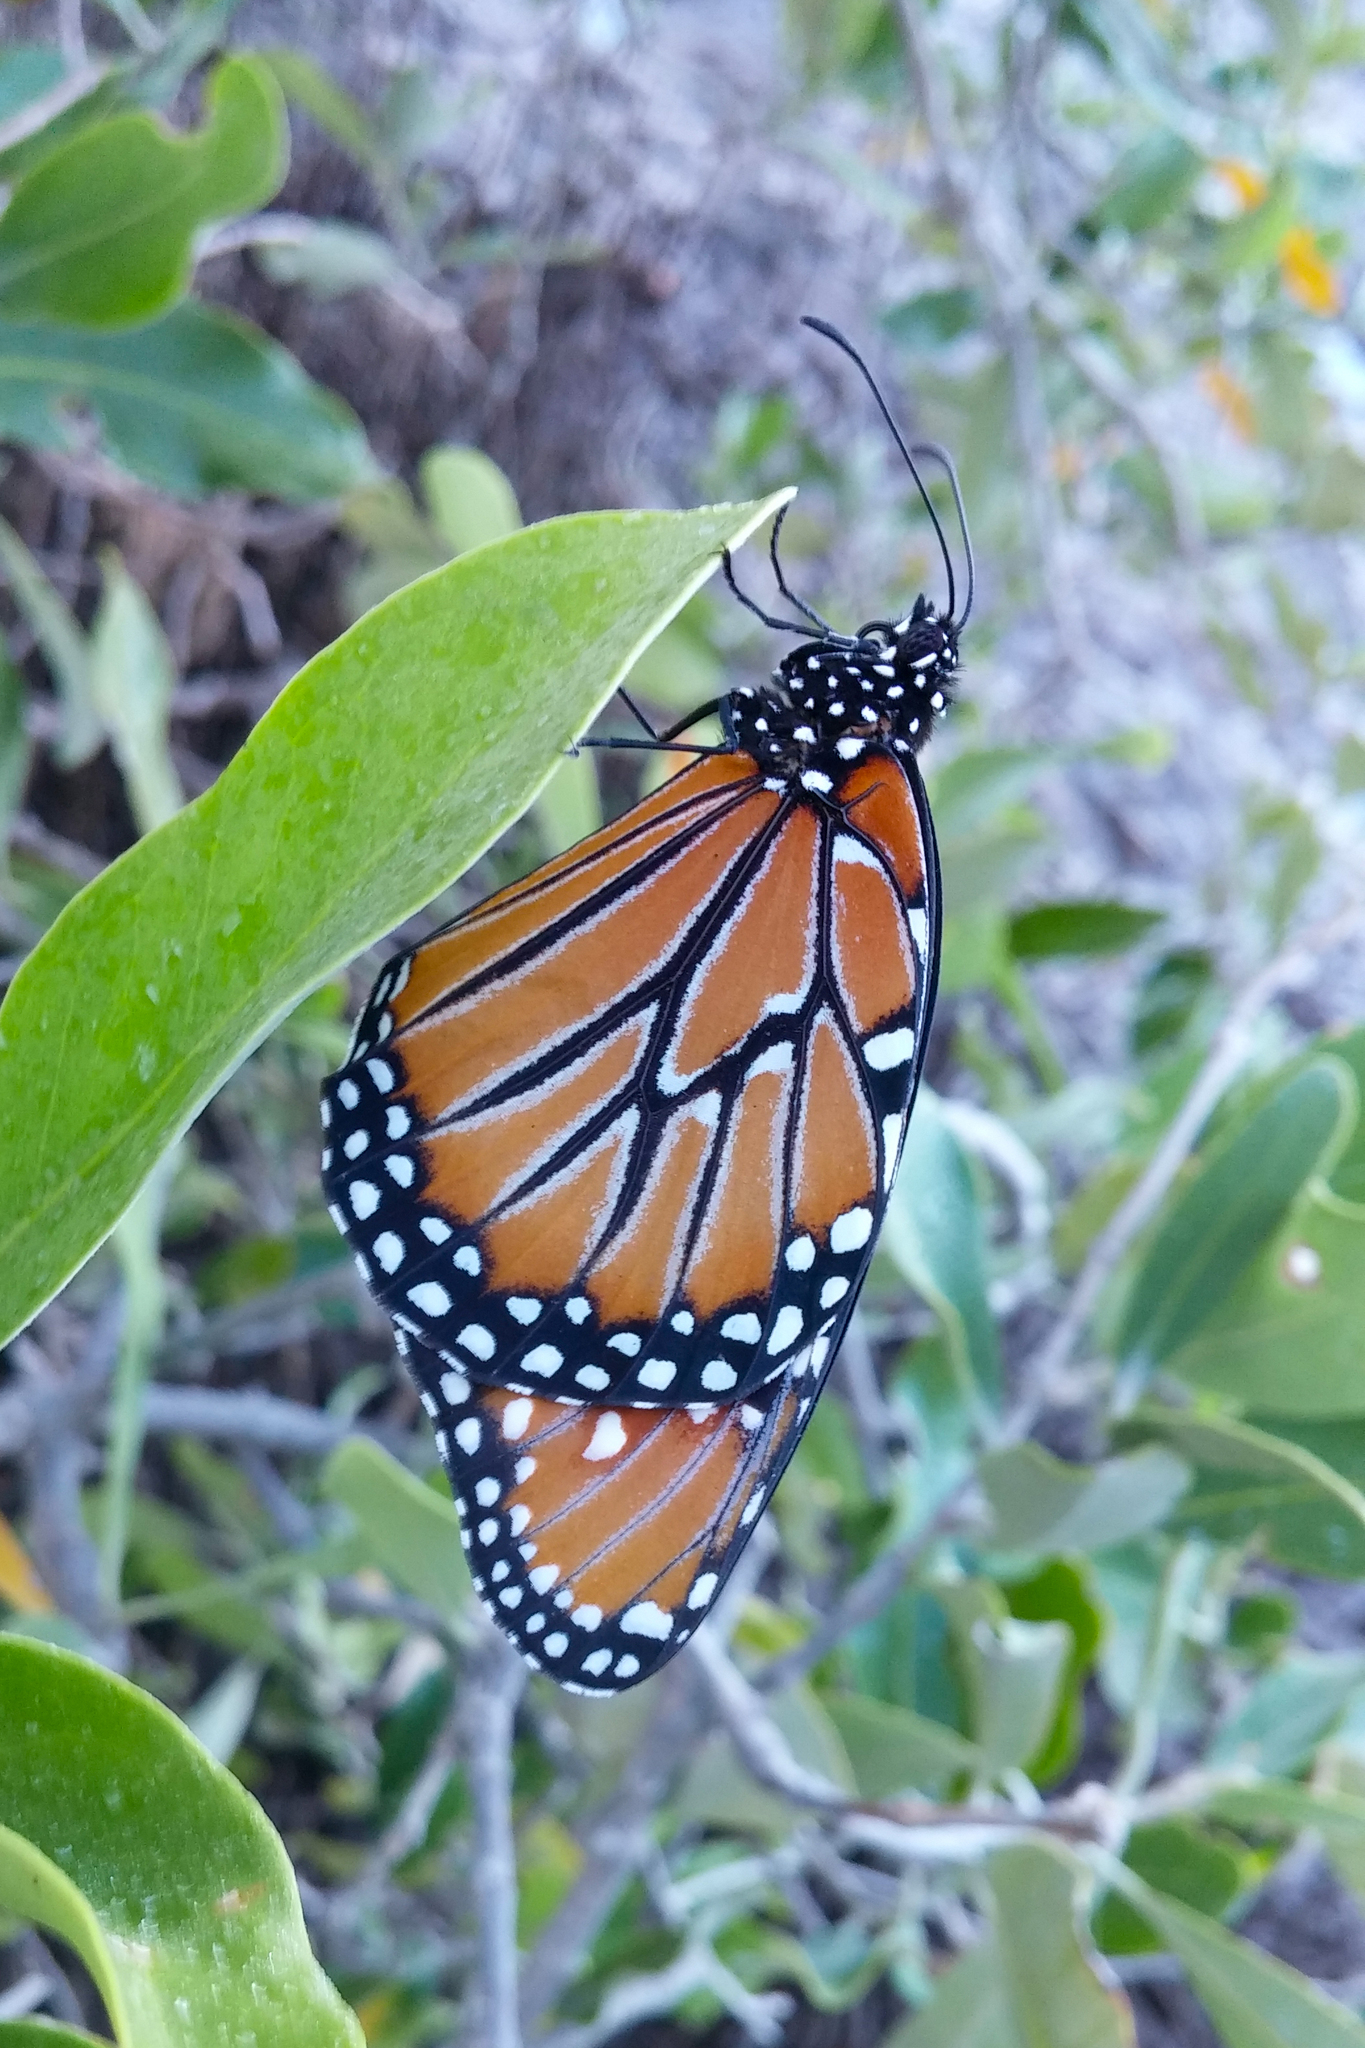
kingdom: Animalia
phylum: Arthropoda
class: Insecta
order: Lepidoptera
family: Nymphalidae
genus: Danaus
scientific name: Danaus gilippus
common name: Queen
